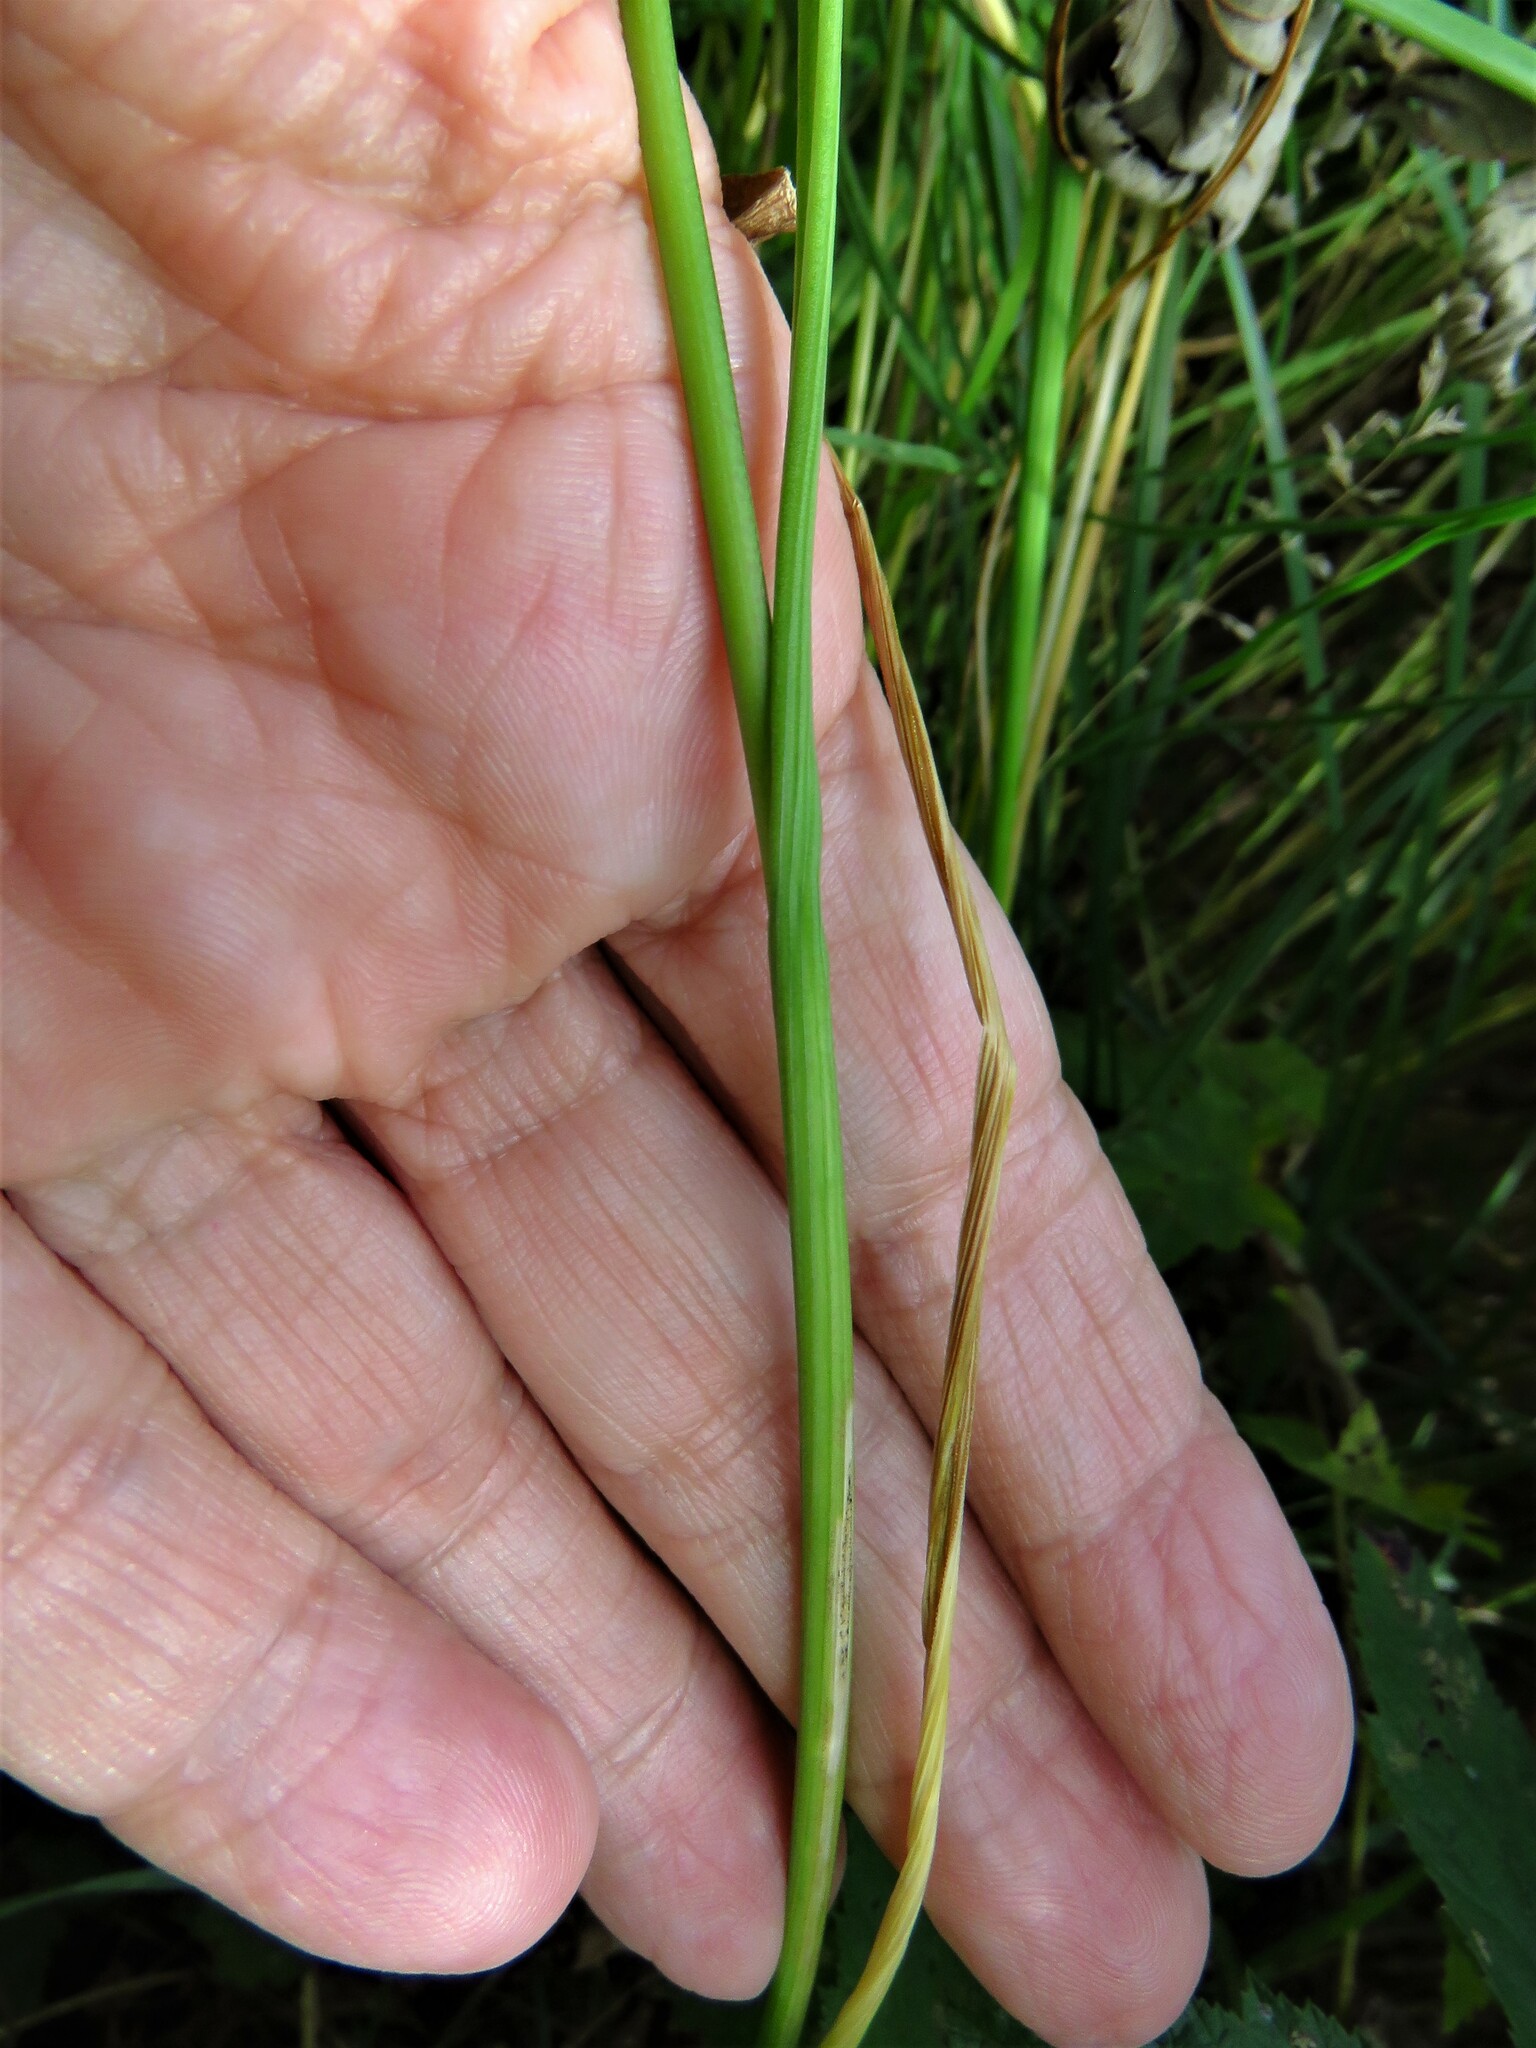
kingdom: Plantae
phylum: Tracheophyta
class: Liliopsida
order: Asparagales
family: Amaryllidaceae
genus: Allium
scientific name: Allium oleraceum
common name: Field garlic
